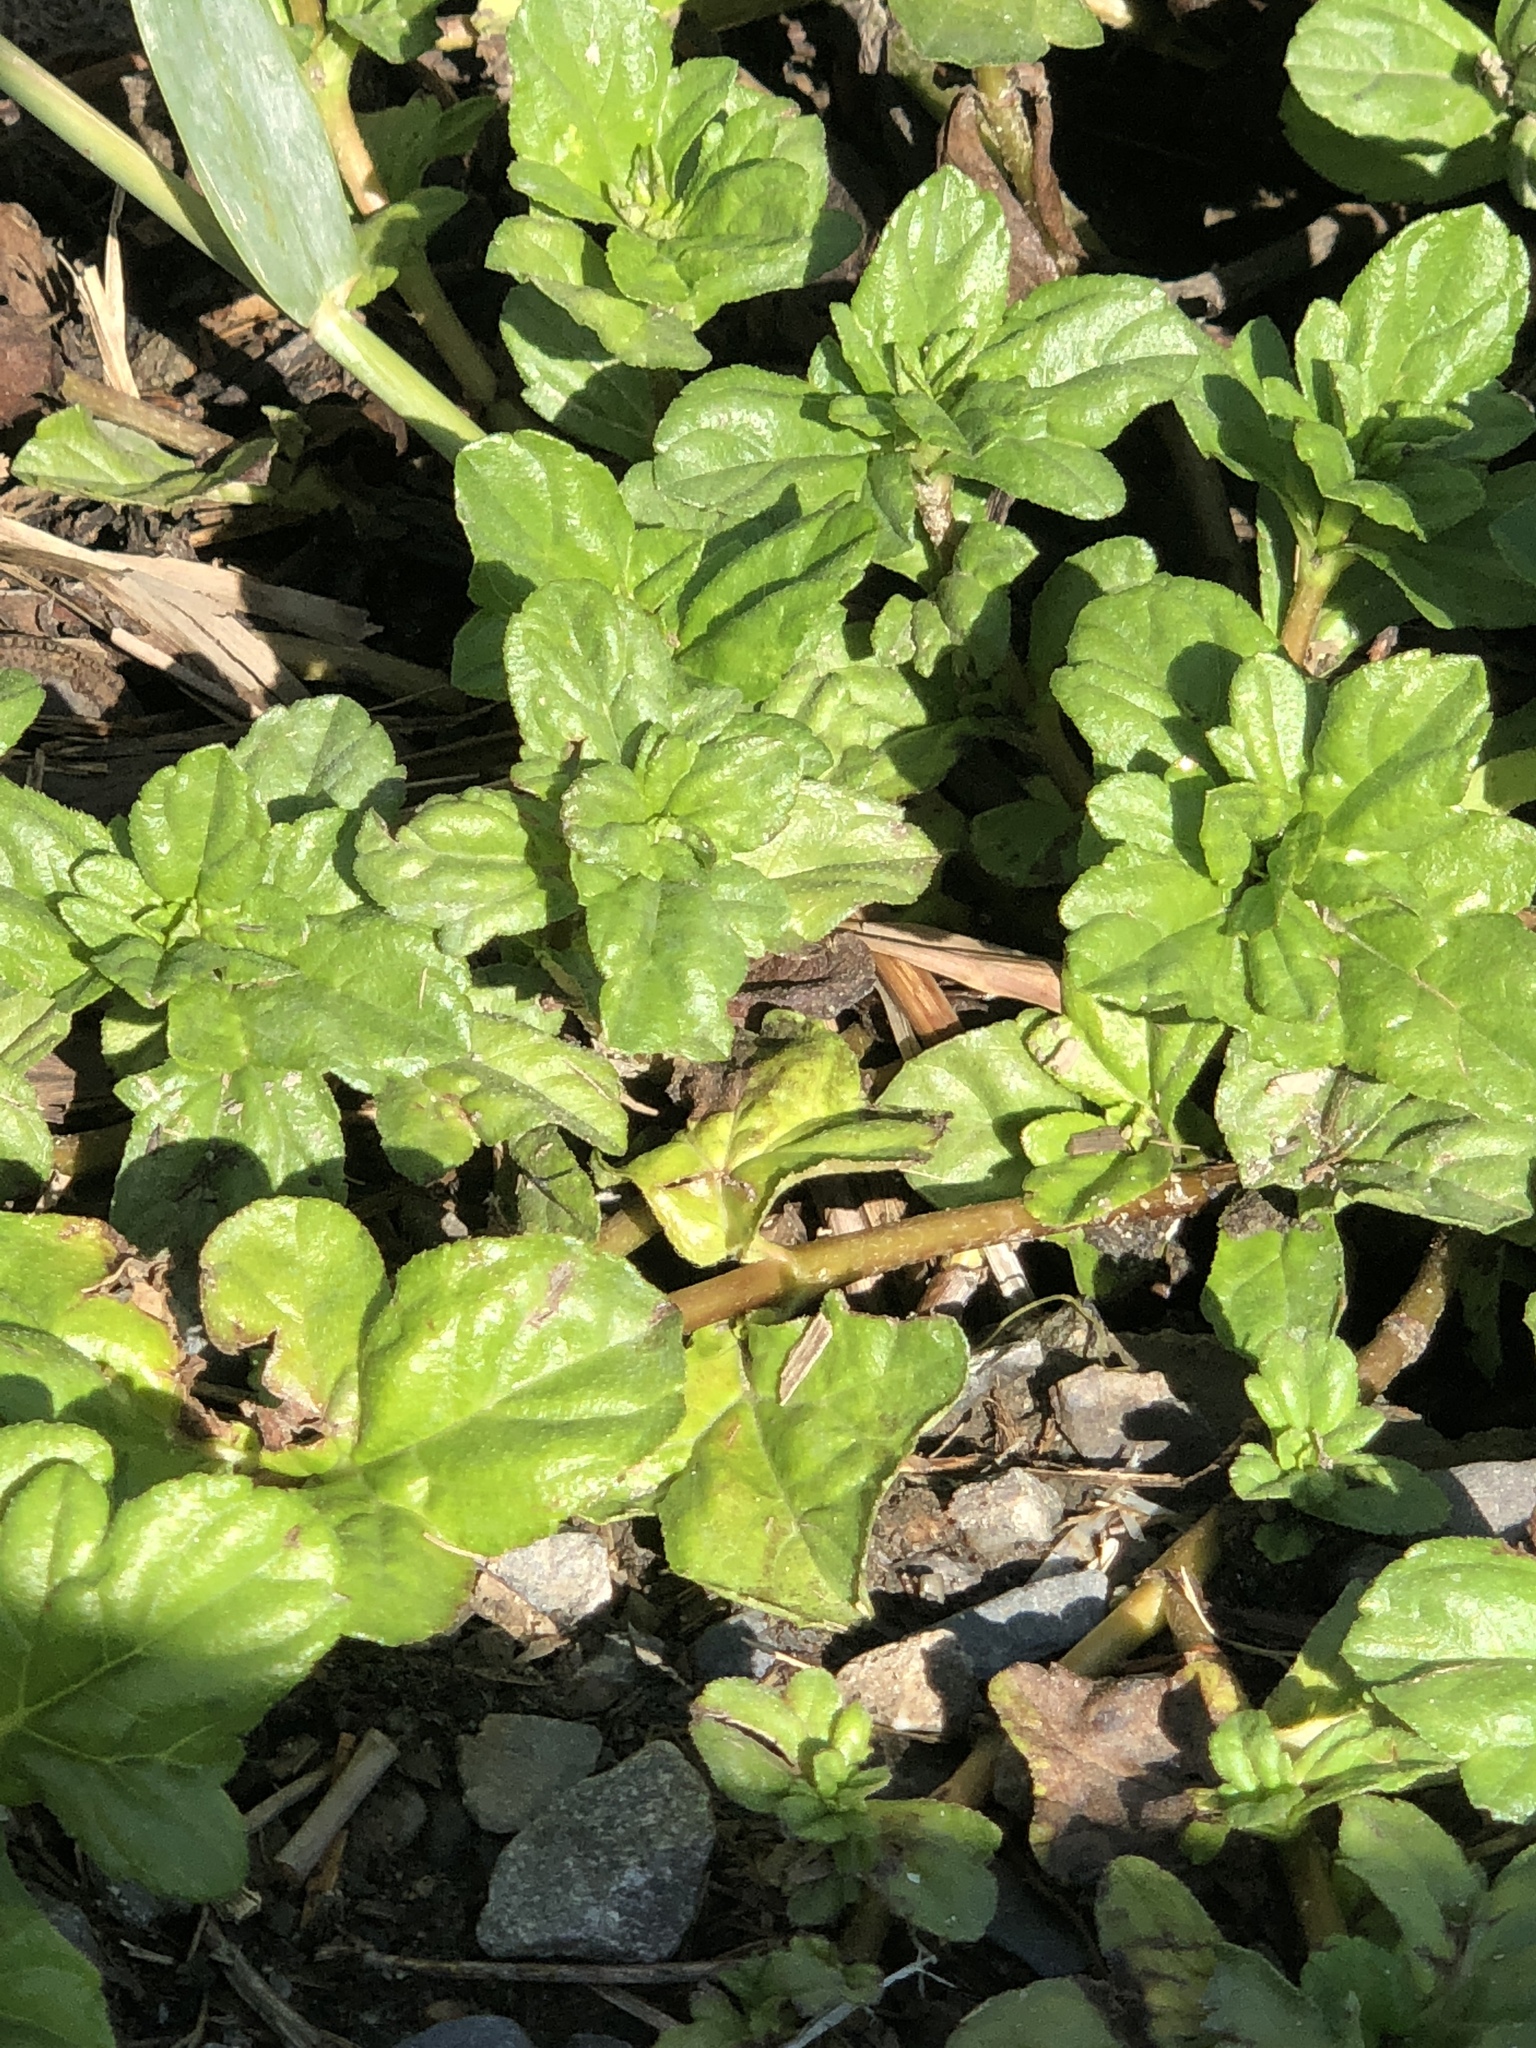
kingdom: Plantae
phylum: Tracheophyta
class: Magnoliopsida
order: Asterales
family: Asteraceae
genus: Sphagneticola
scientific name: Sphagneticola trilobata
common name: Bay biscayne creeping-oxeye
